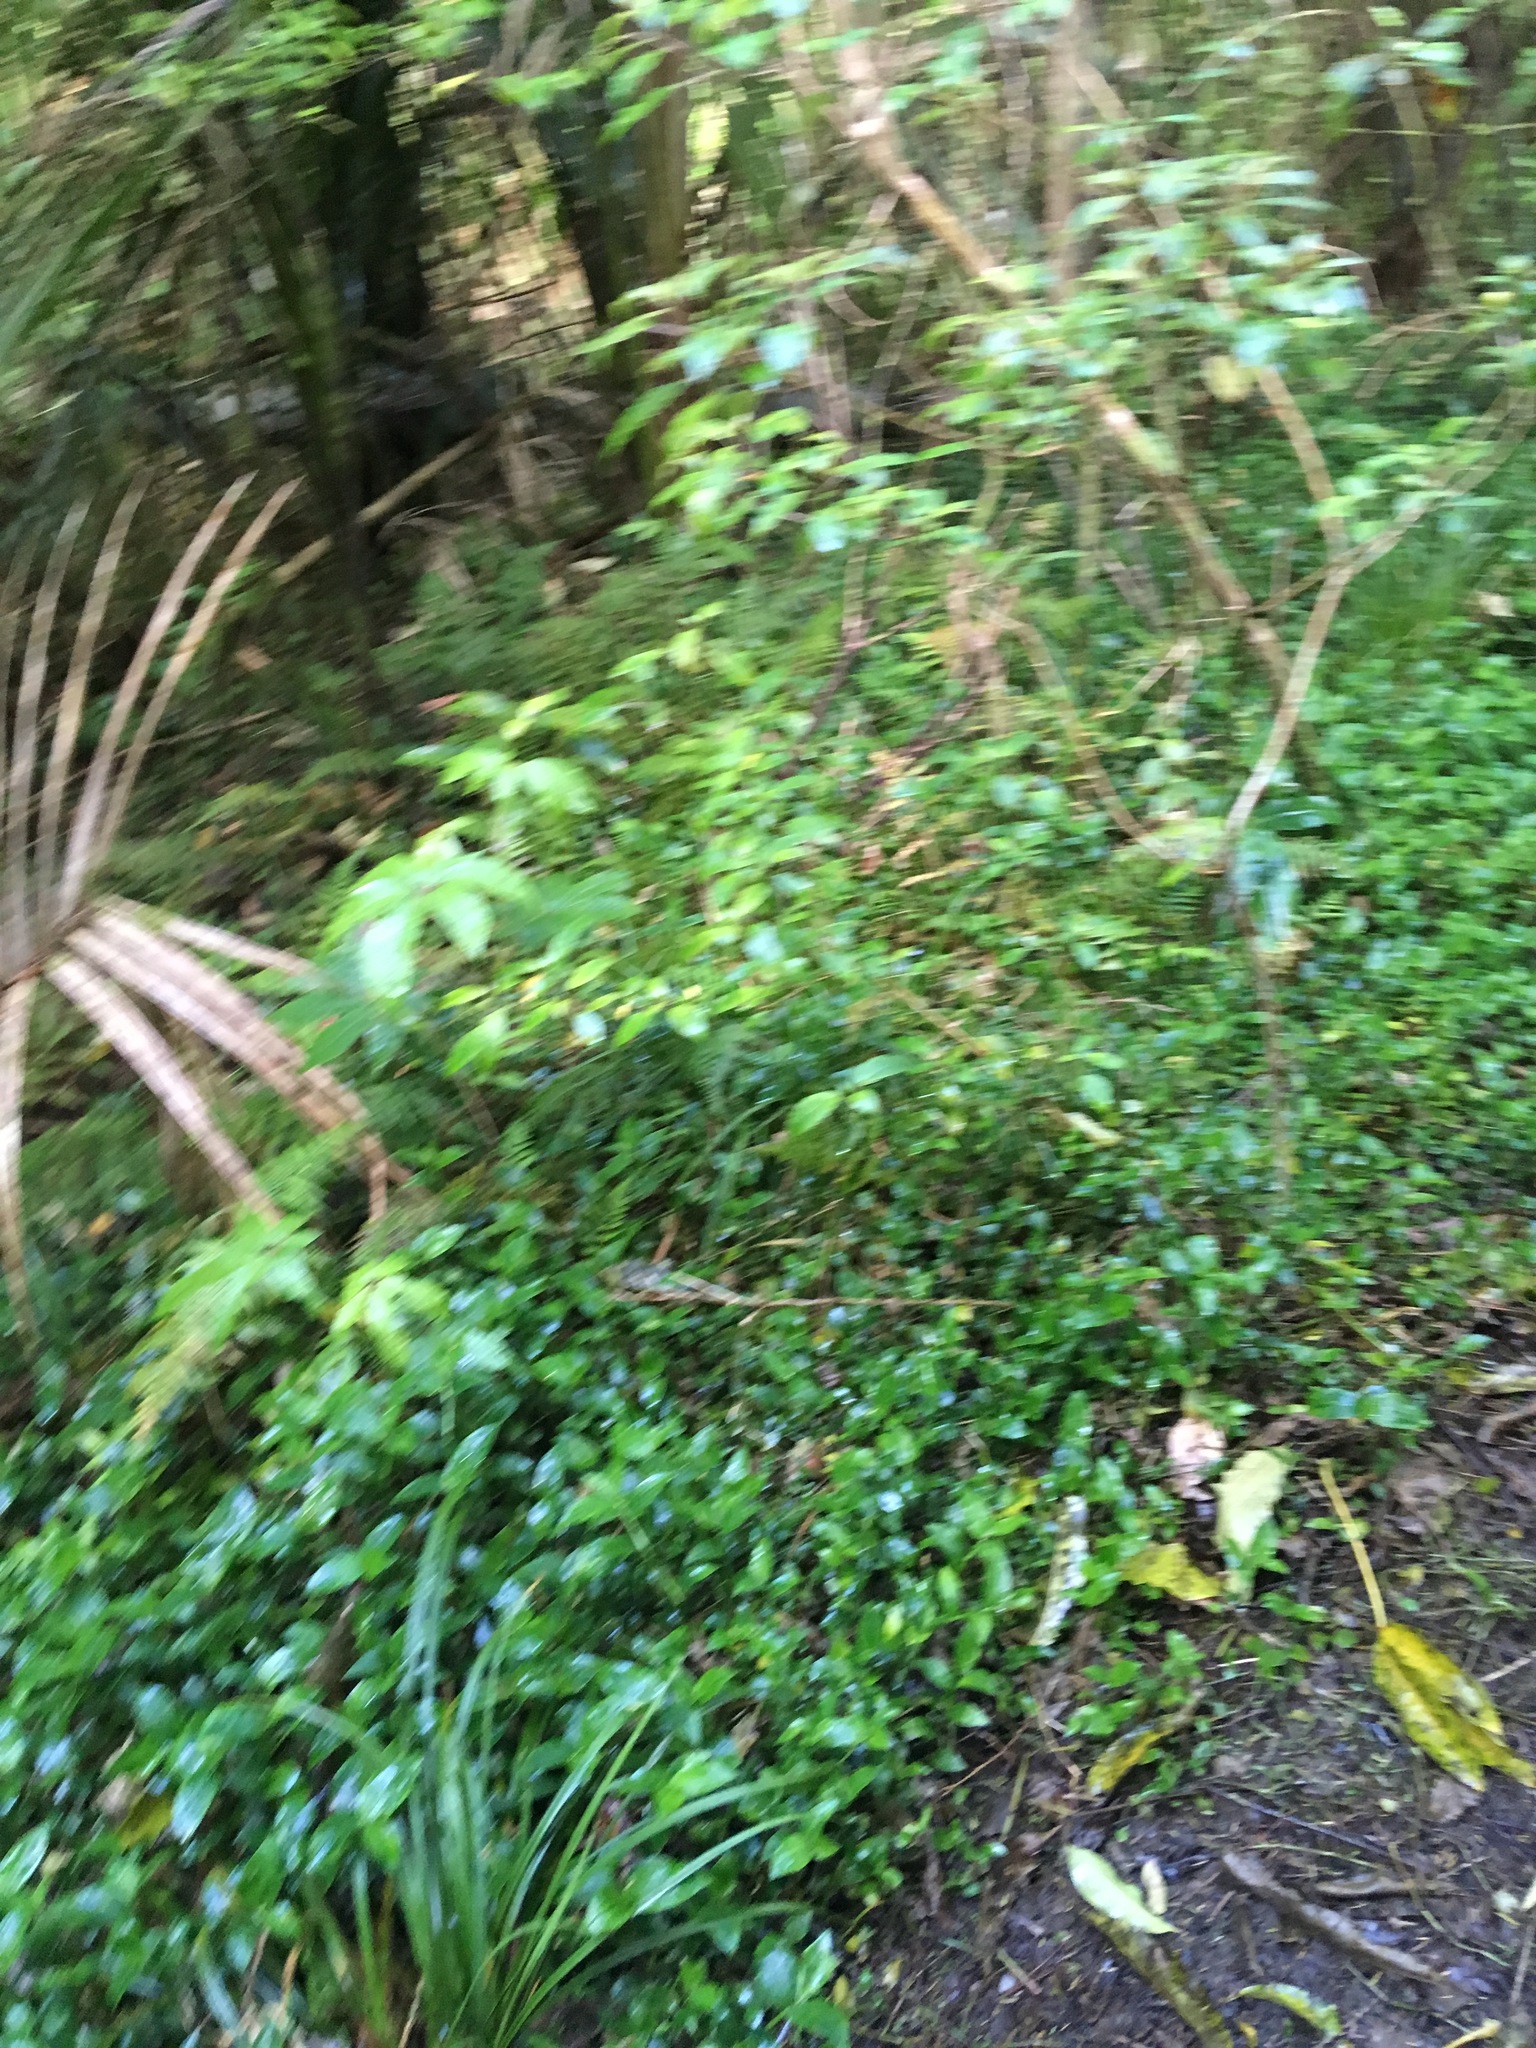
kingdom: Plantae
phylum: Tracheophyta
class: Liliopsida
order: Commelinales
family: Commelinaceae
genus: Tradescantia
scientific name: Tradescantia fluminensis
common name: Wandering-jew
